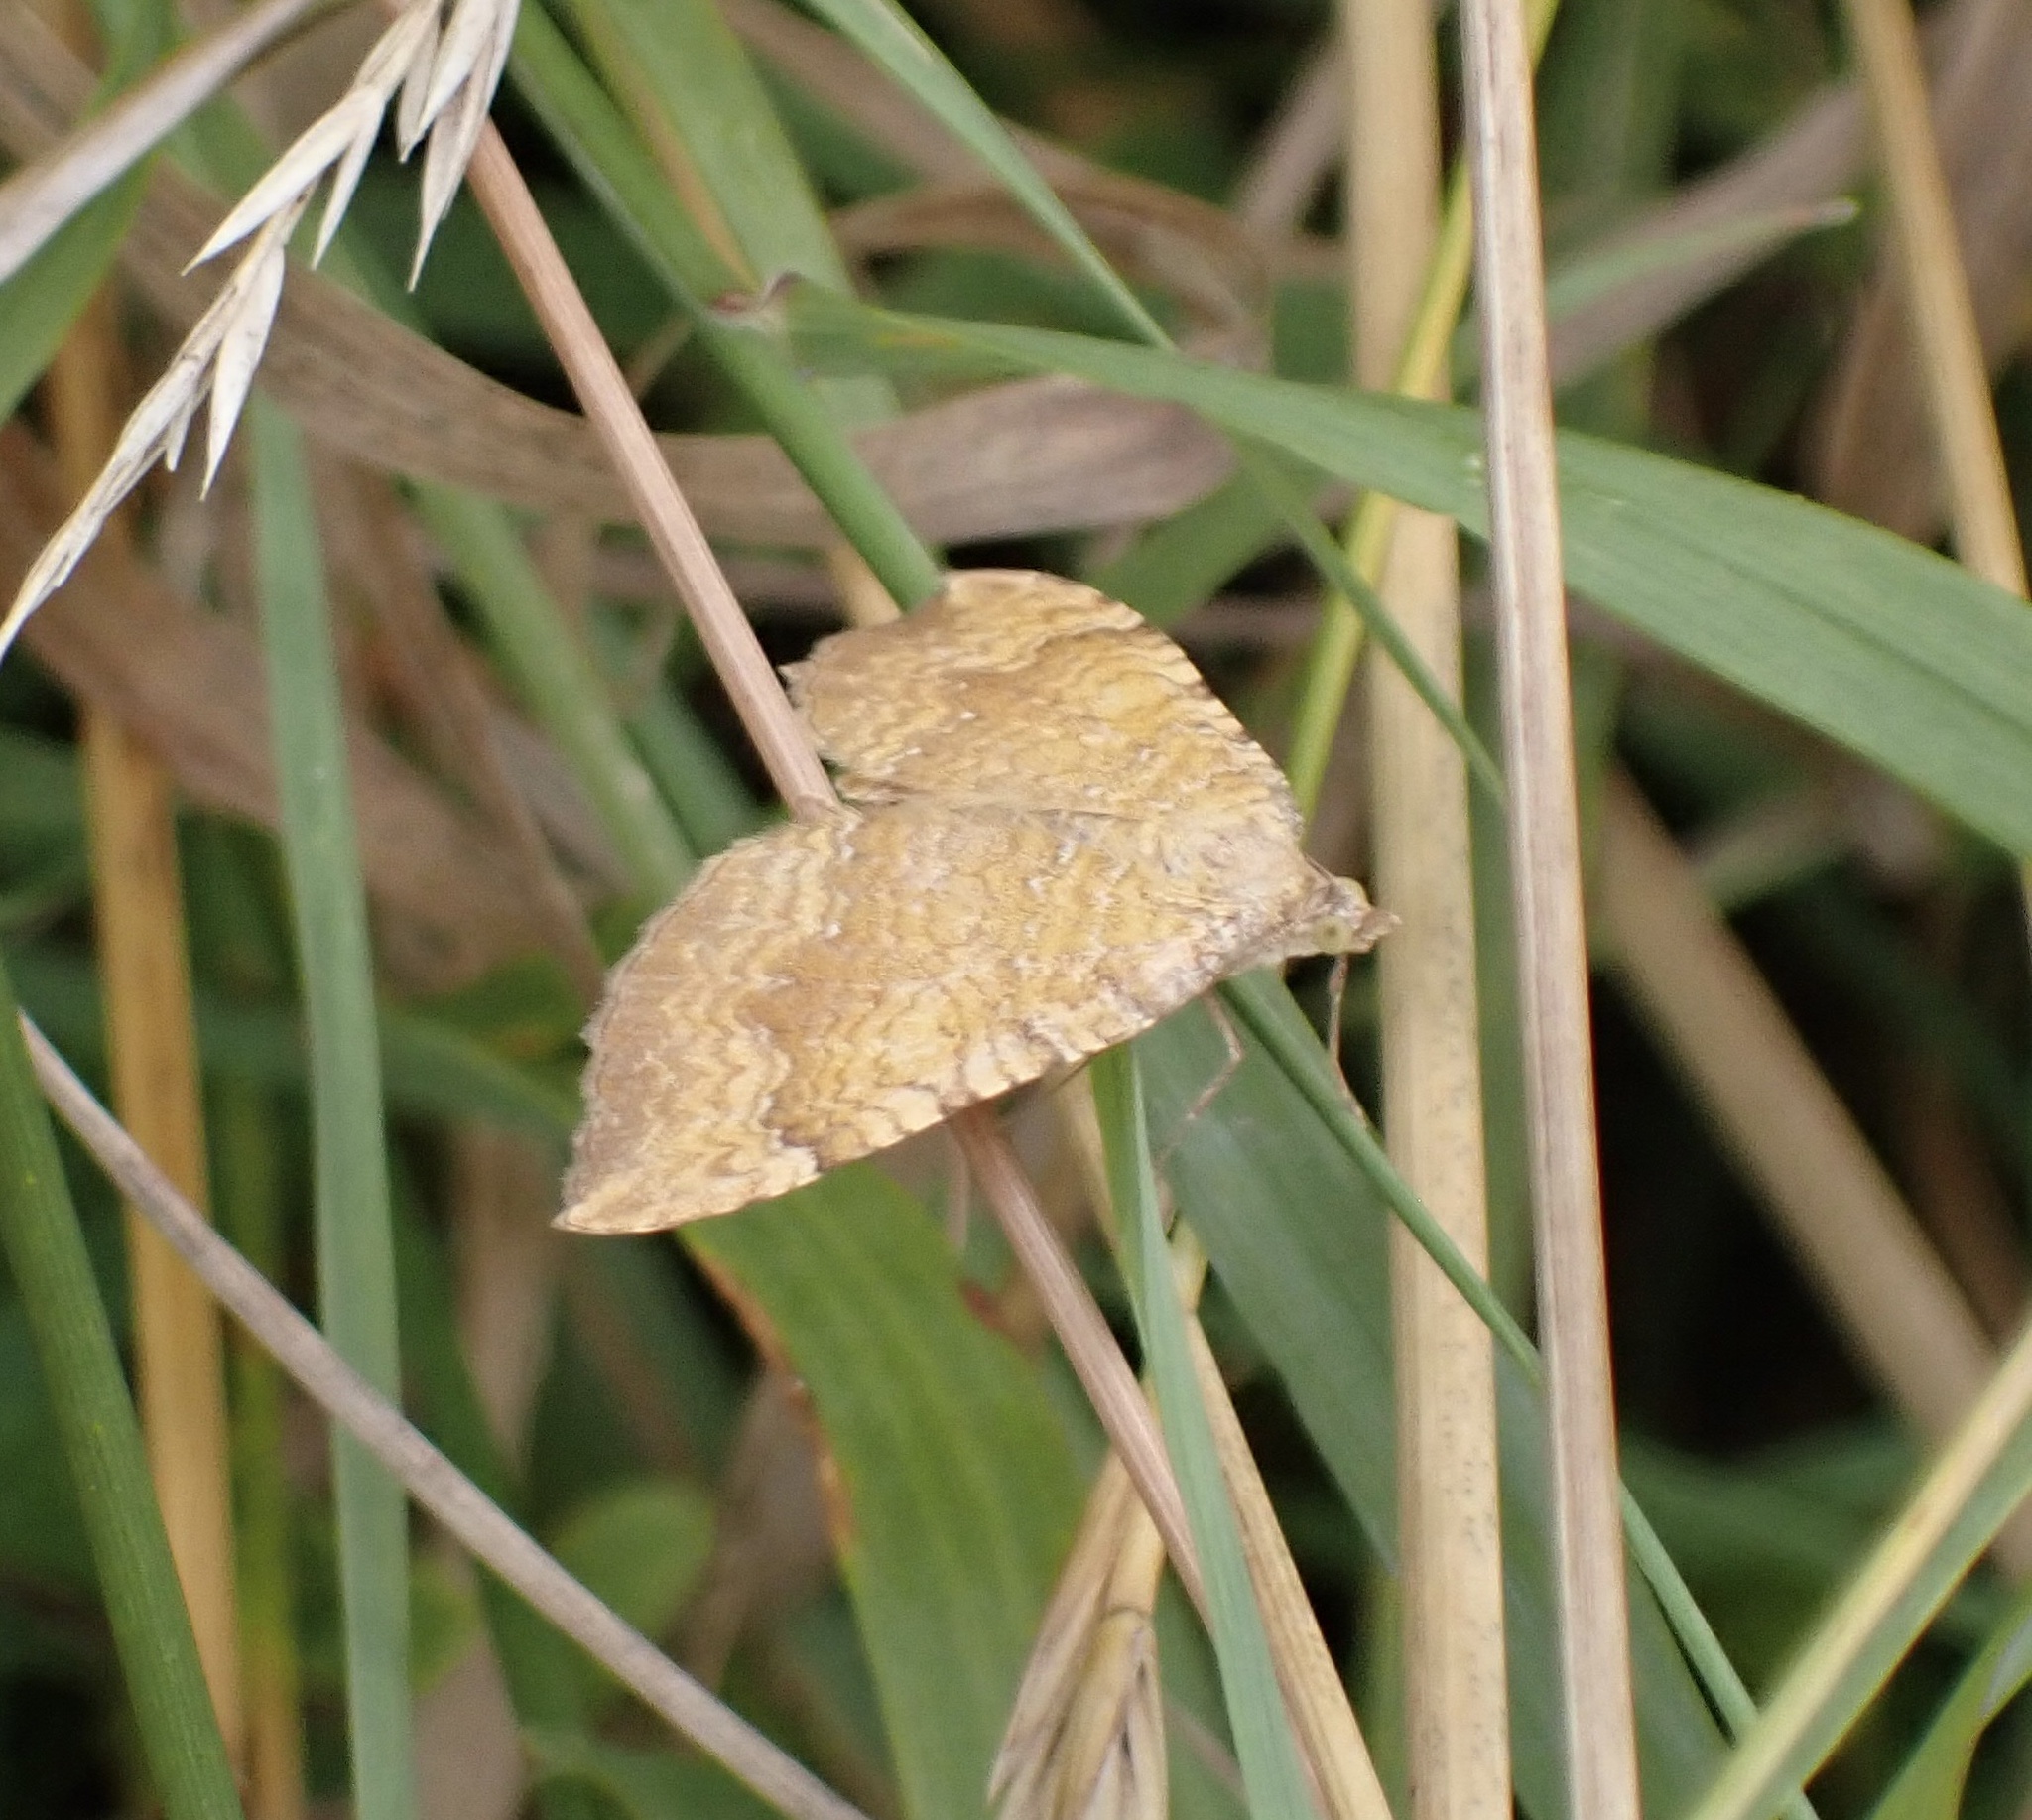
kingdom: Animalia
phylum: Arthropoda
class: Insecta
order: Lepidoptera
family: Geometridae
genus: Camptogramma
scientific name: Camptogramma bilineata
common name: Yellow shell
